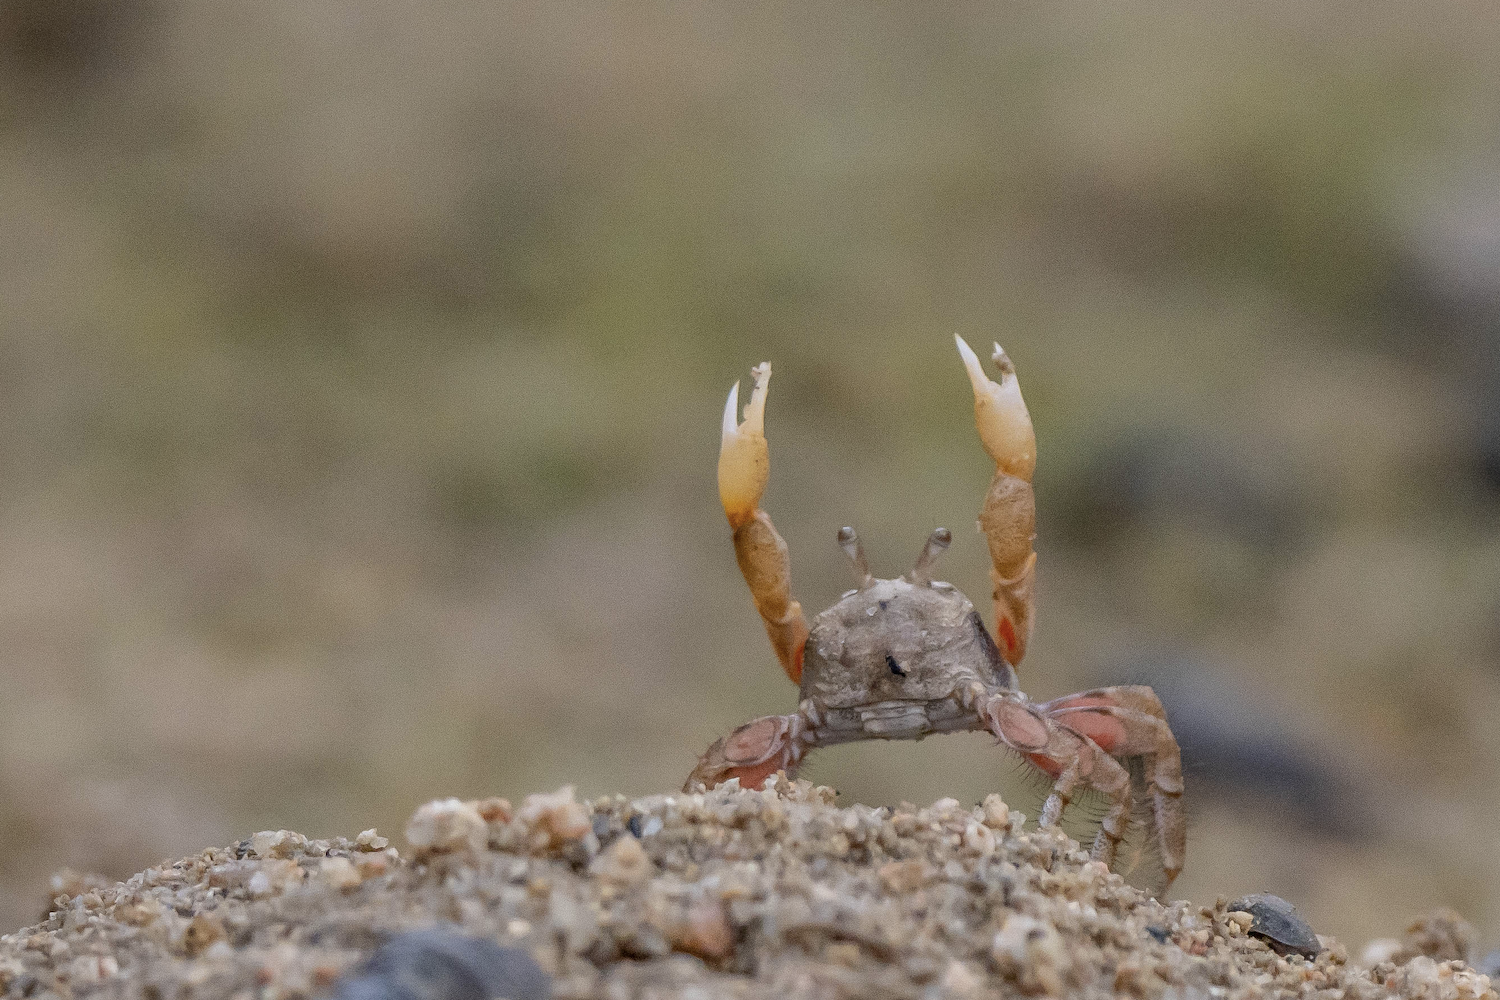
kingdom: Animalia
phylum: Arthropoda
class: Malacostraca
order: Decapoda
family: Dotillidae
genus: Scopimera
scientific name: Scopimera intermedia
